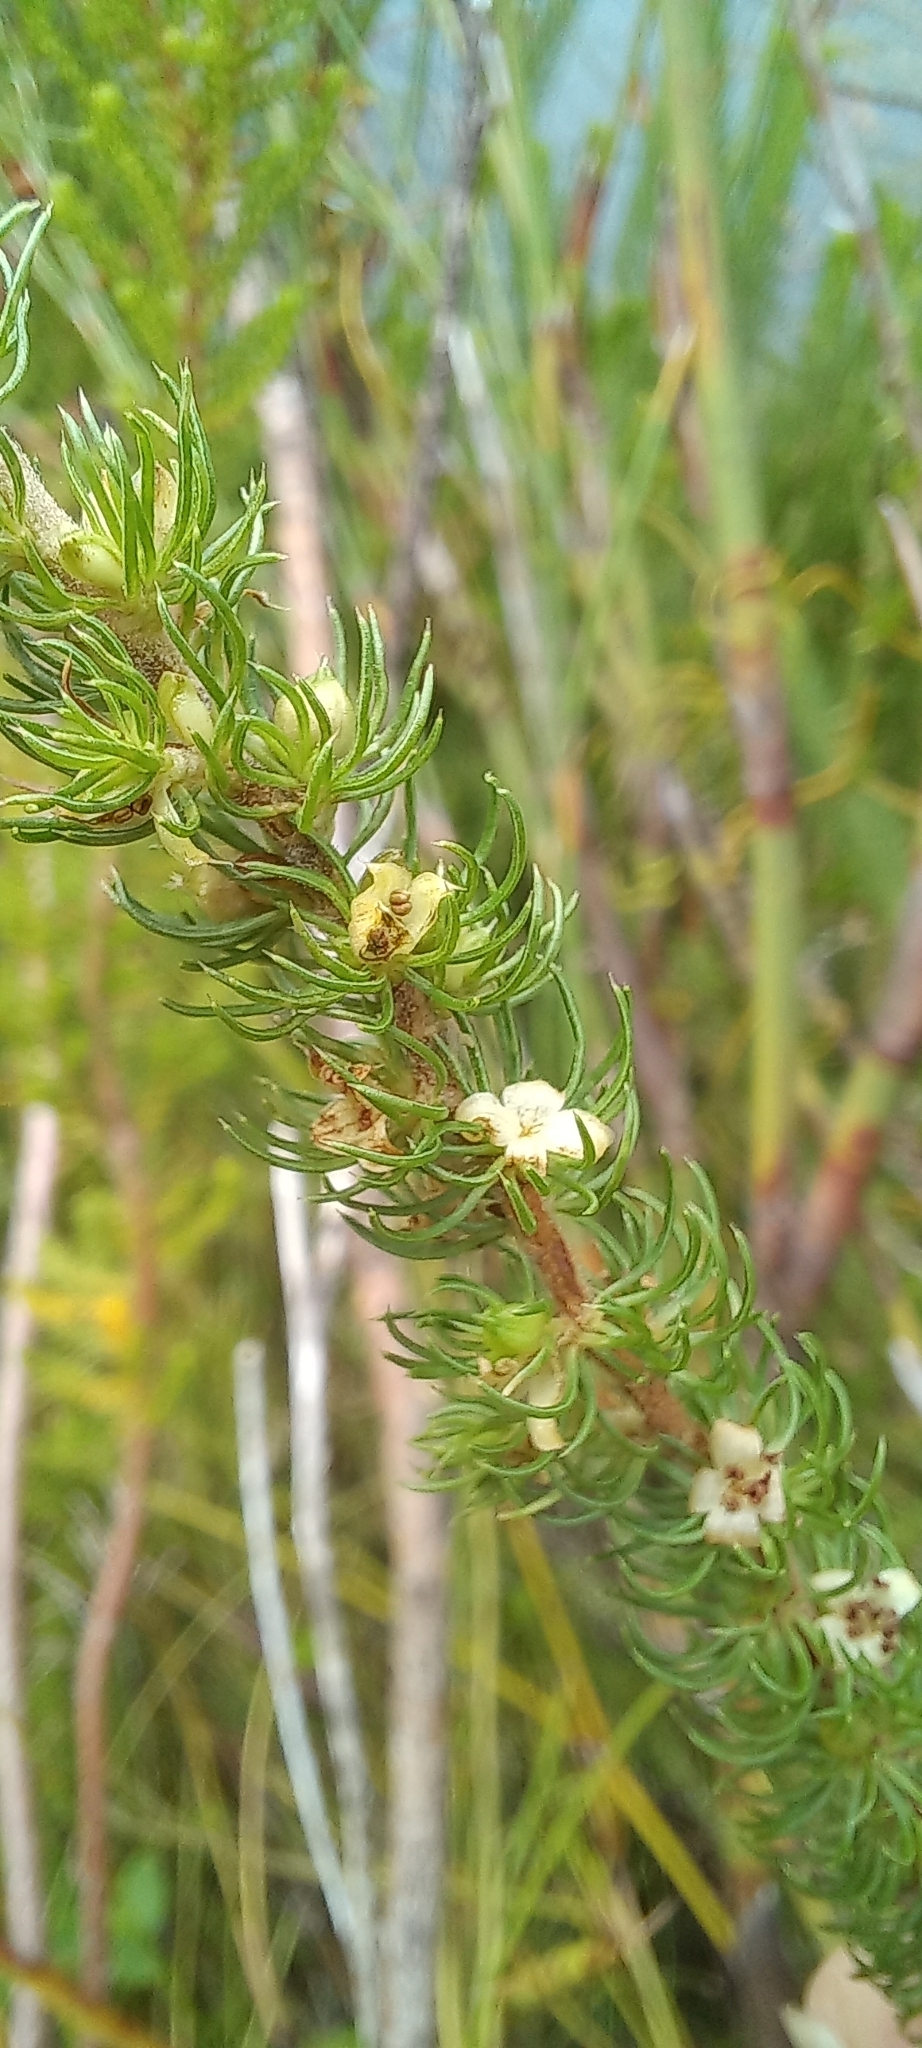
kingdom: Plantae
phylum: Tracheophyta
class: Magnoliopsida
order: Rosales
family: Rosaceae
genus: Cliffortia
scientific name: Cliffortia subsetacea
